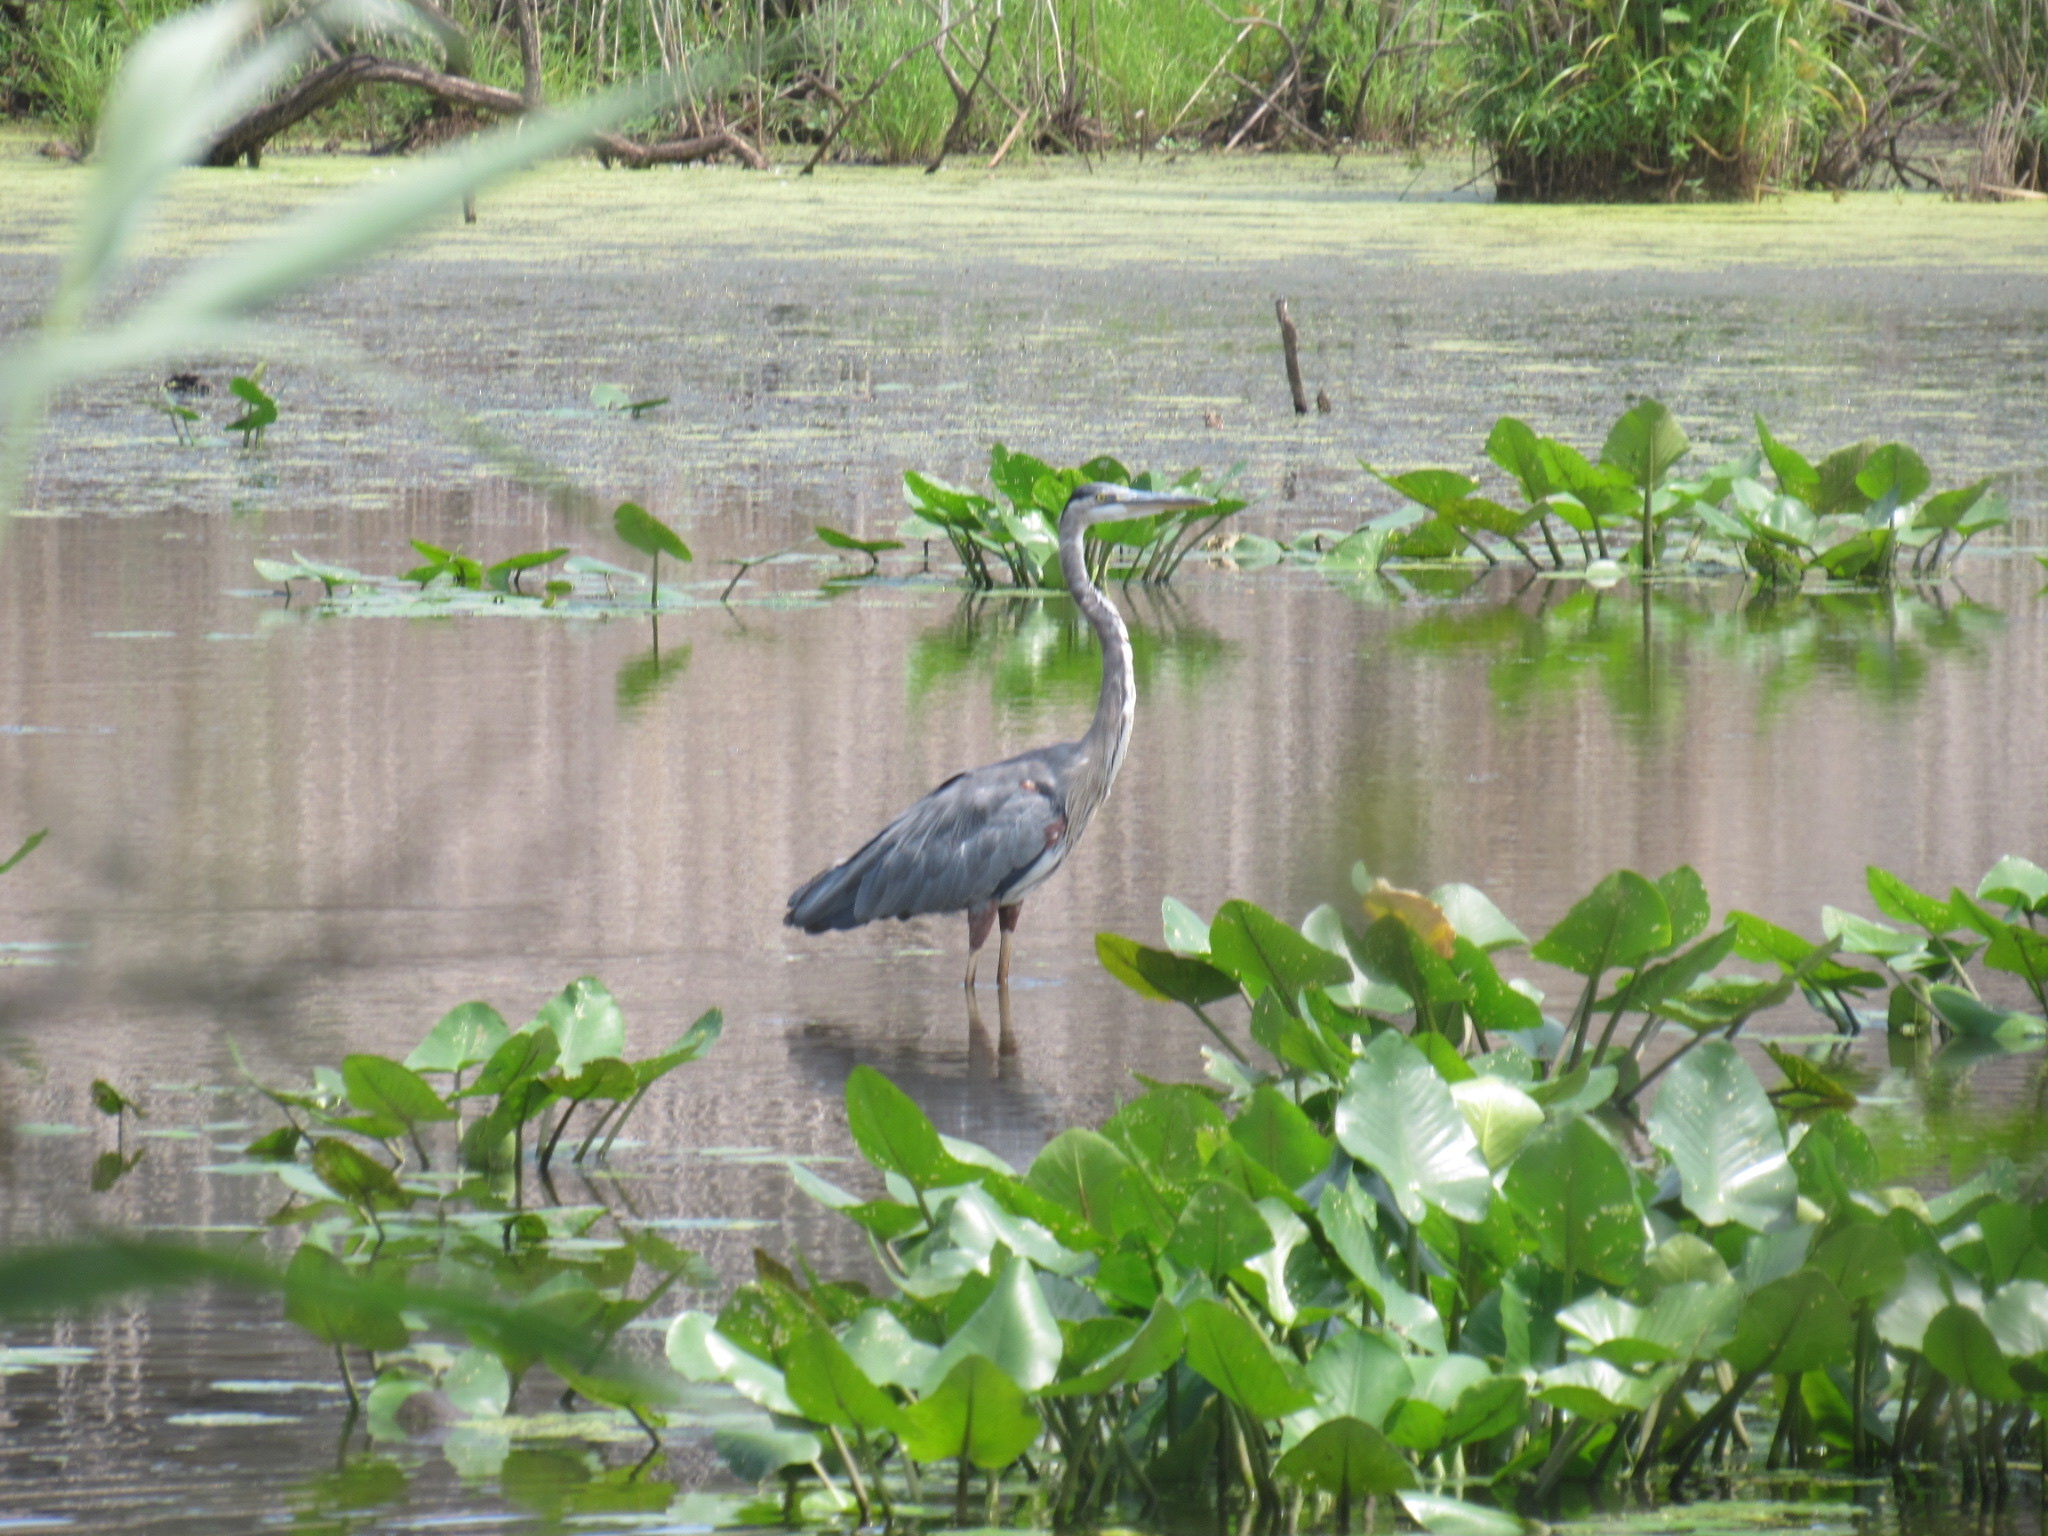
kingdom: Animalia
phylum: Chordata
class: Aves
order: Pelecaniformes
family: Ardeidae
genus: Ardea
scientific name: Ardea herodias
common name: Great blue heron
